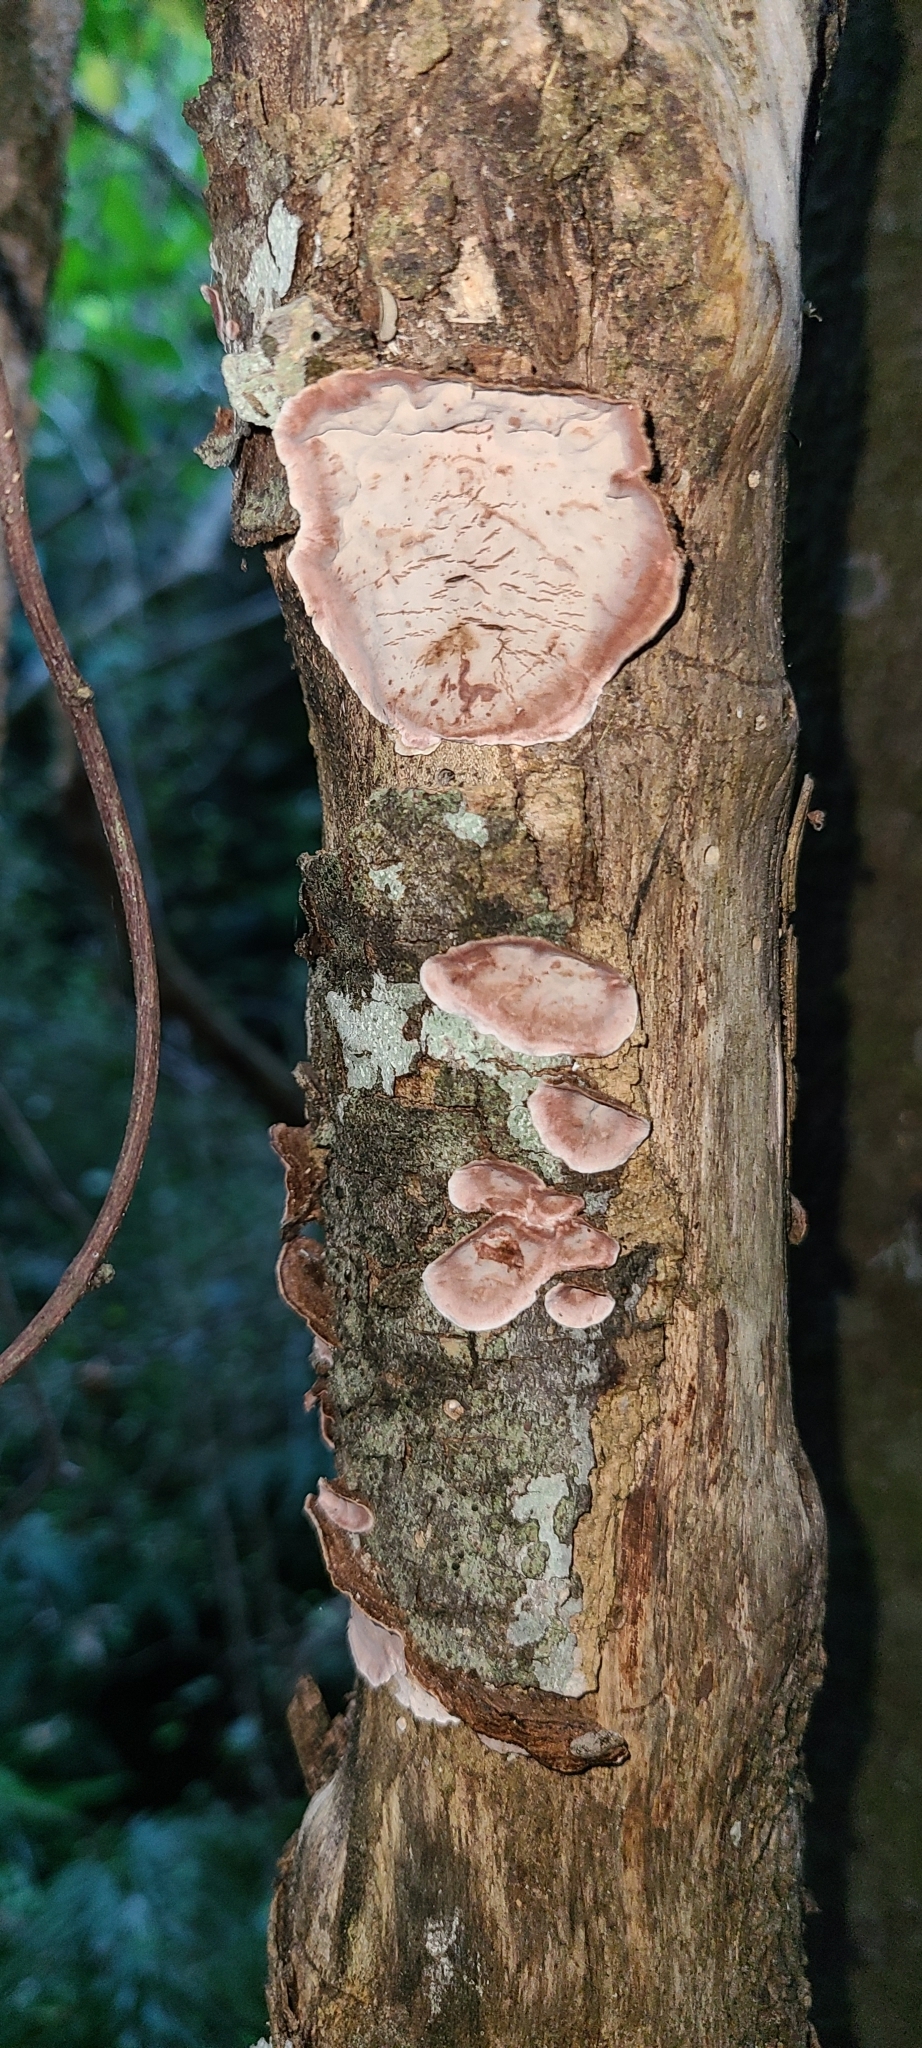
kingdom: Fungi
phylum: Basidiomycota
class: Agaricomycetes
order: Russulales
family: Stereaceae
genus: Xylobolus
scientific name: Xylobolus illudens
